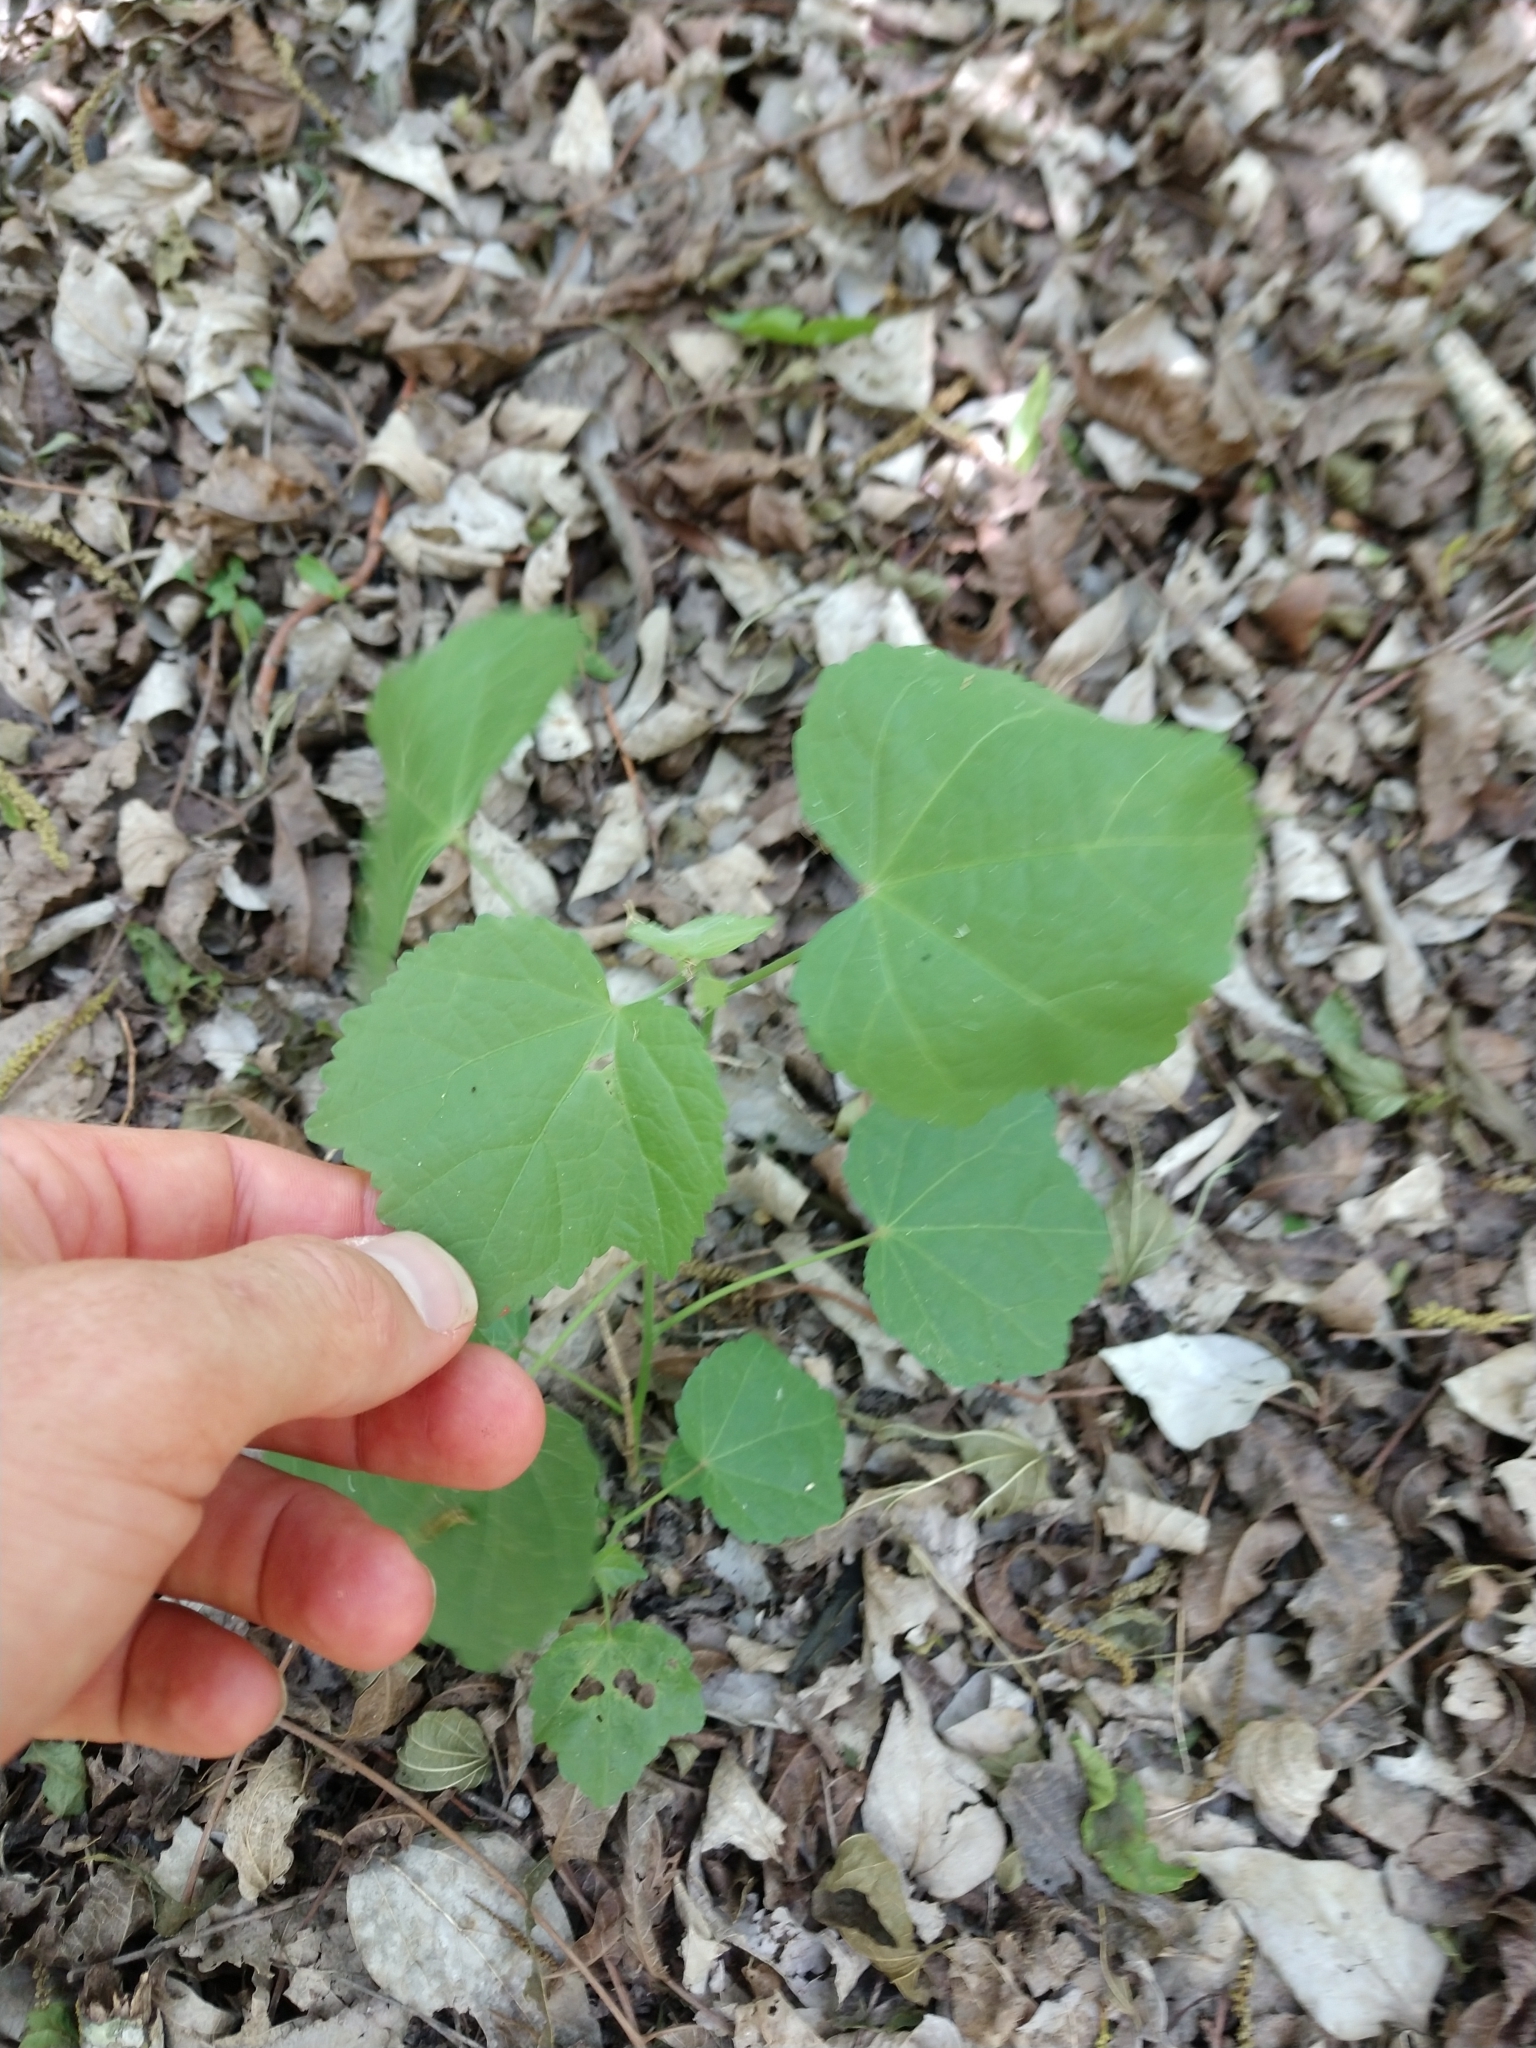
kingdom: Plantae
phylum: Tracheophyta
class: Magnoliopsida
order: Malvales
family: Malvaceae
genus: Malvaviscus
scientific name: Malvaviscus arboreus
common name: Wax mallow
